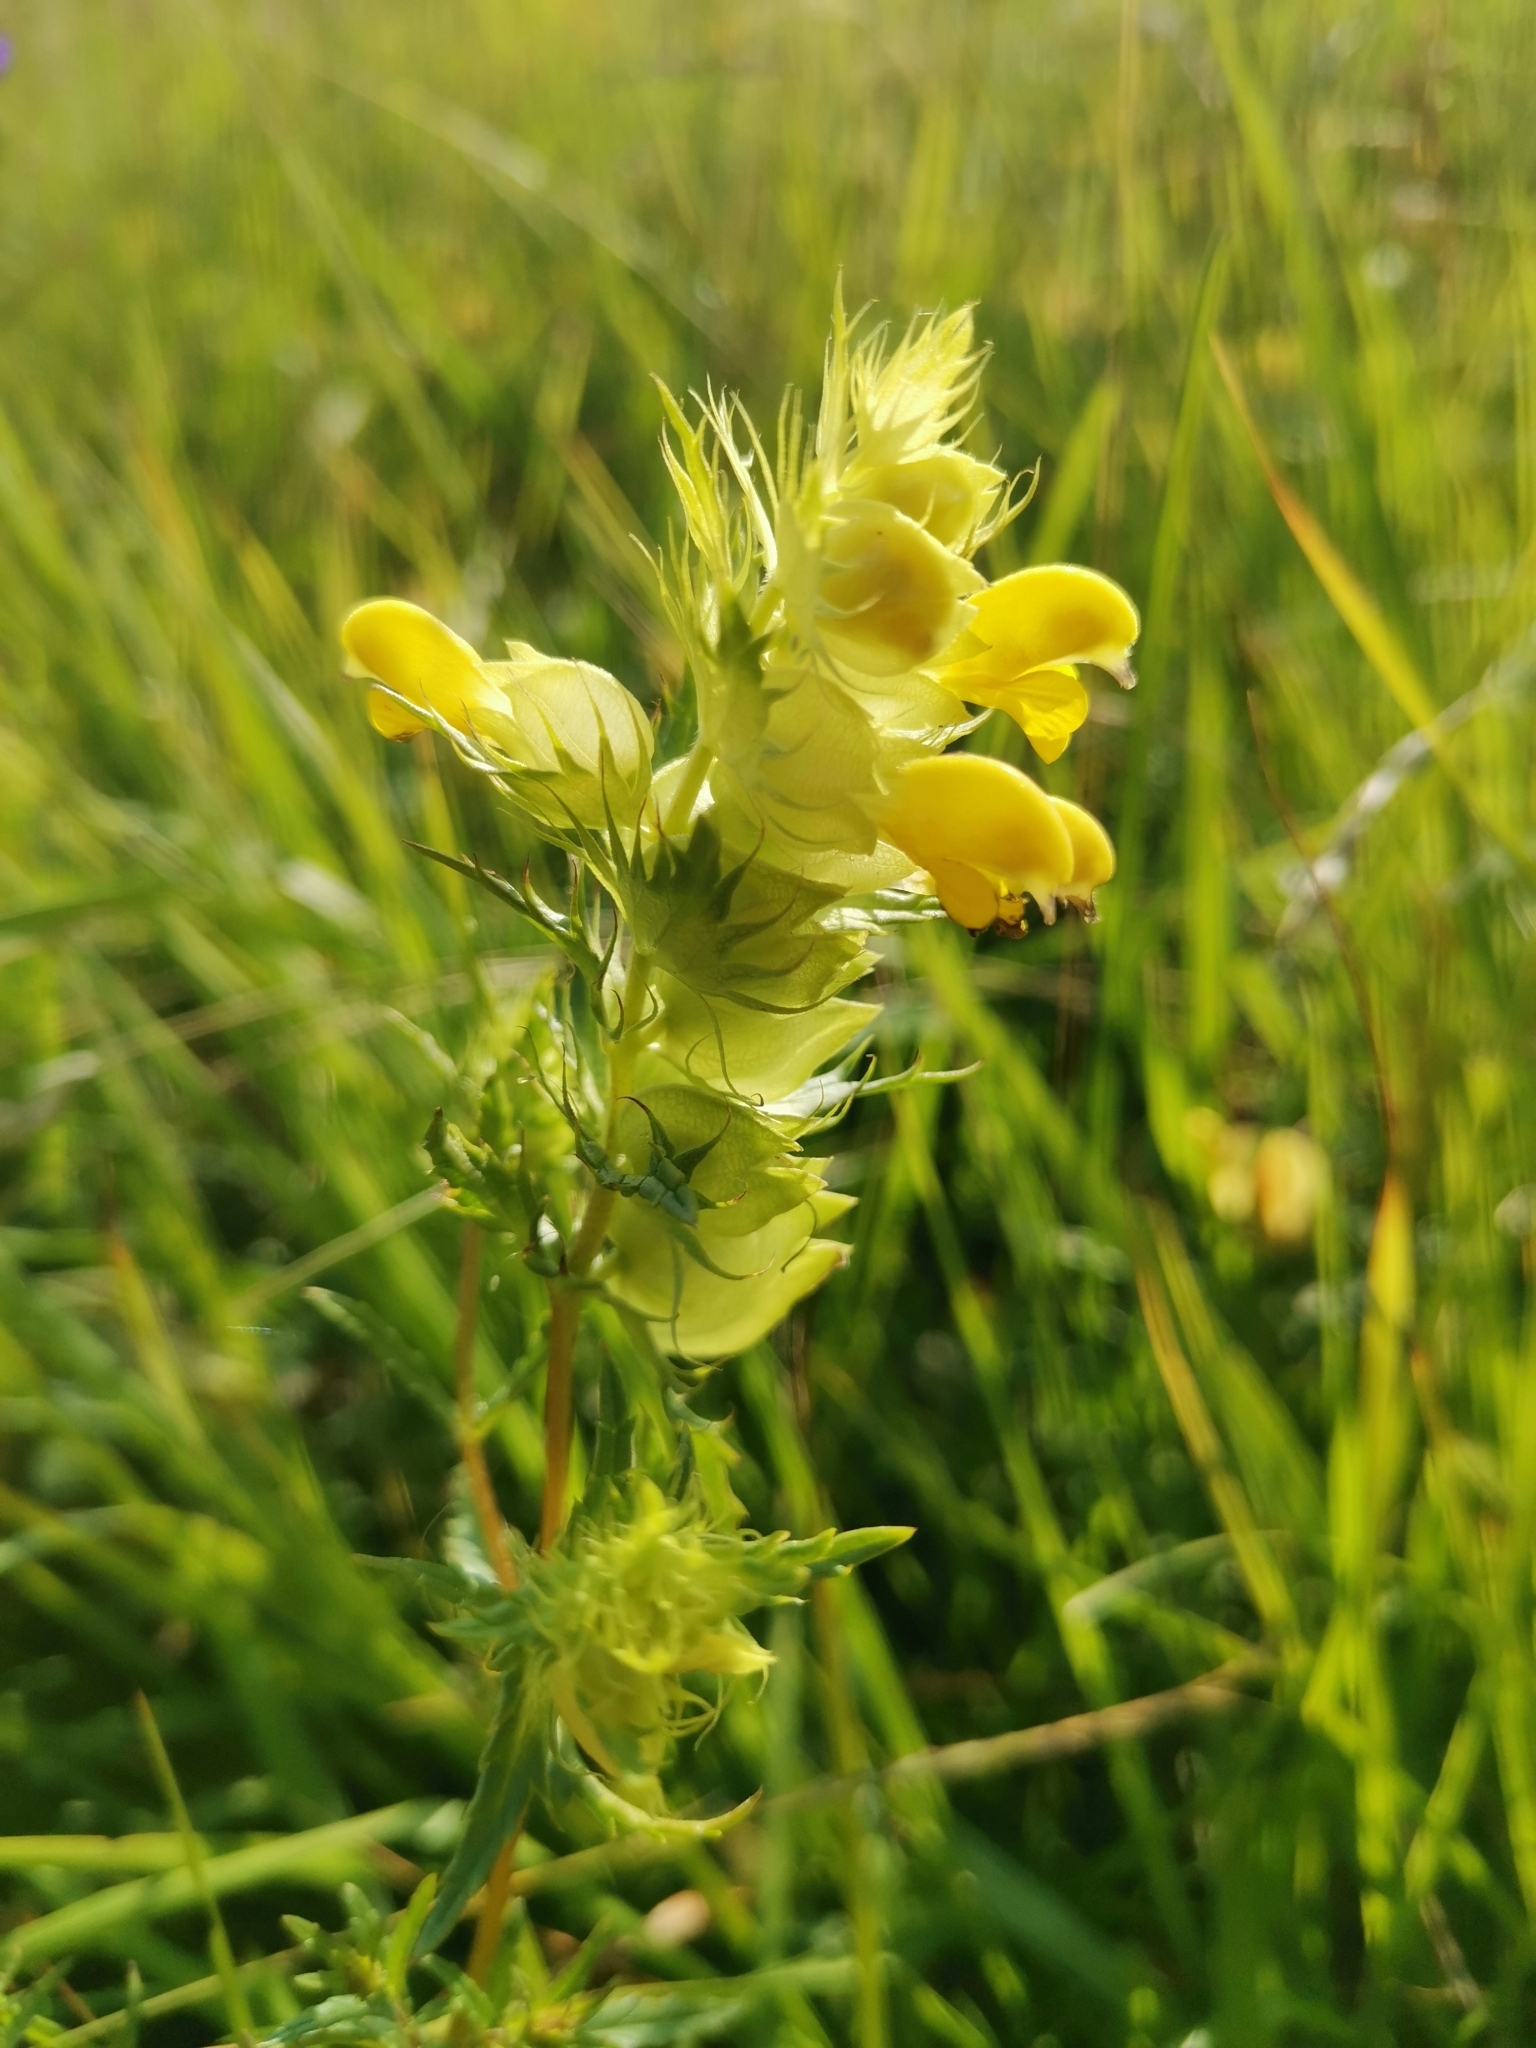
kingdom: Plantae
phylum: Tracheophyta
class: Magnoliopsida
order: Lamiales
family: Orobanchaceae
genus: Rhinanthus
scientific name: Rhinanthus glacialis
